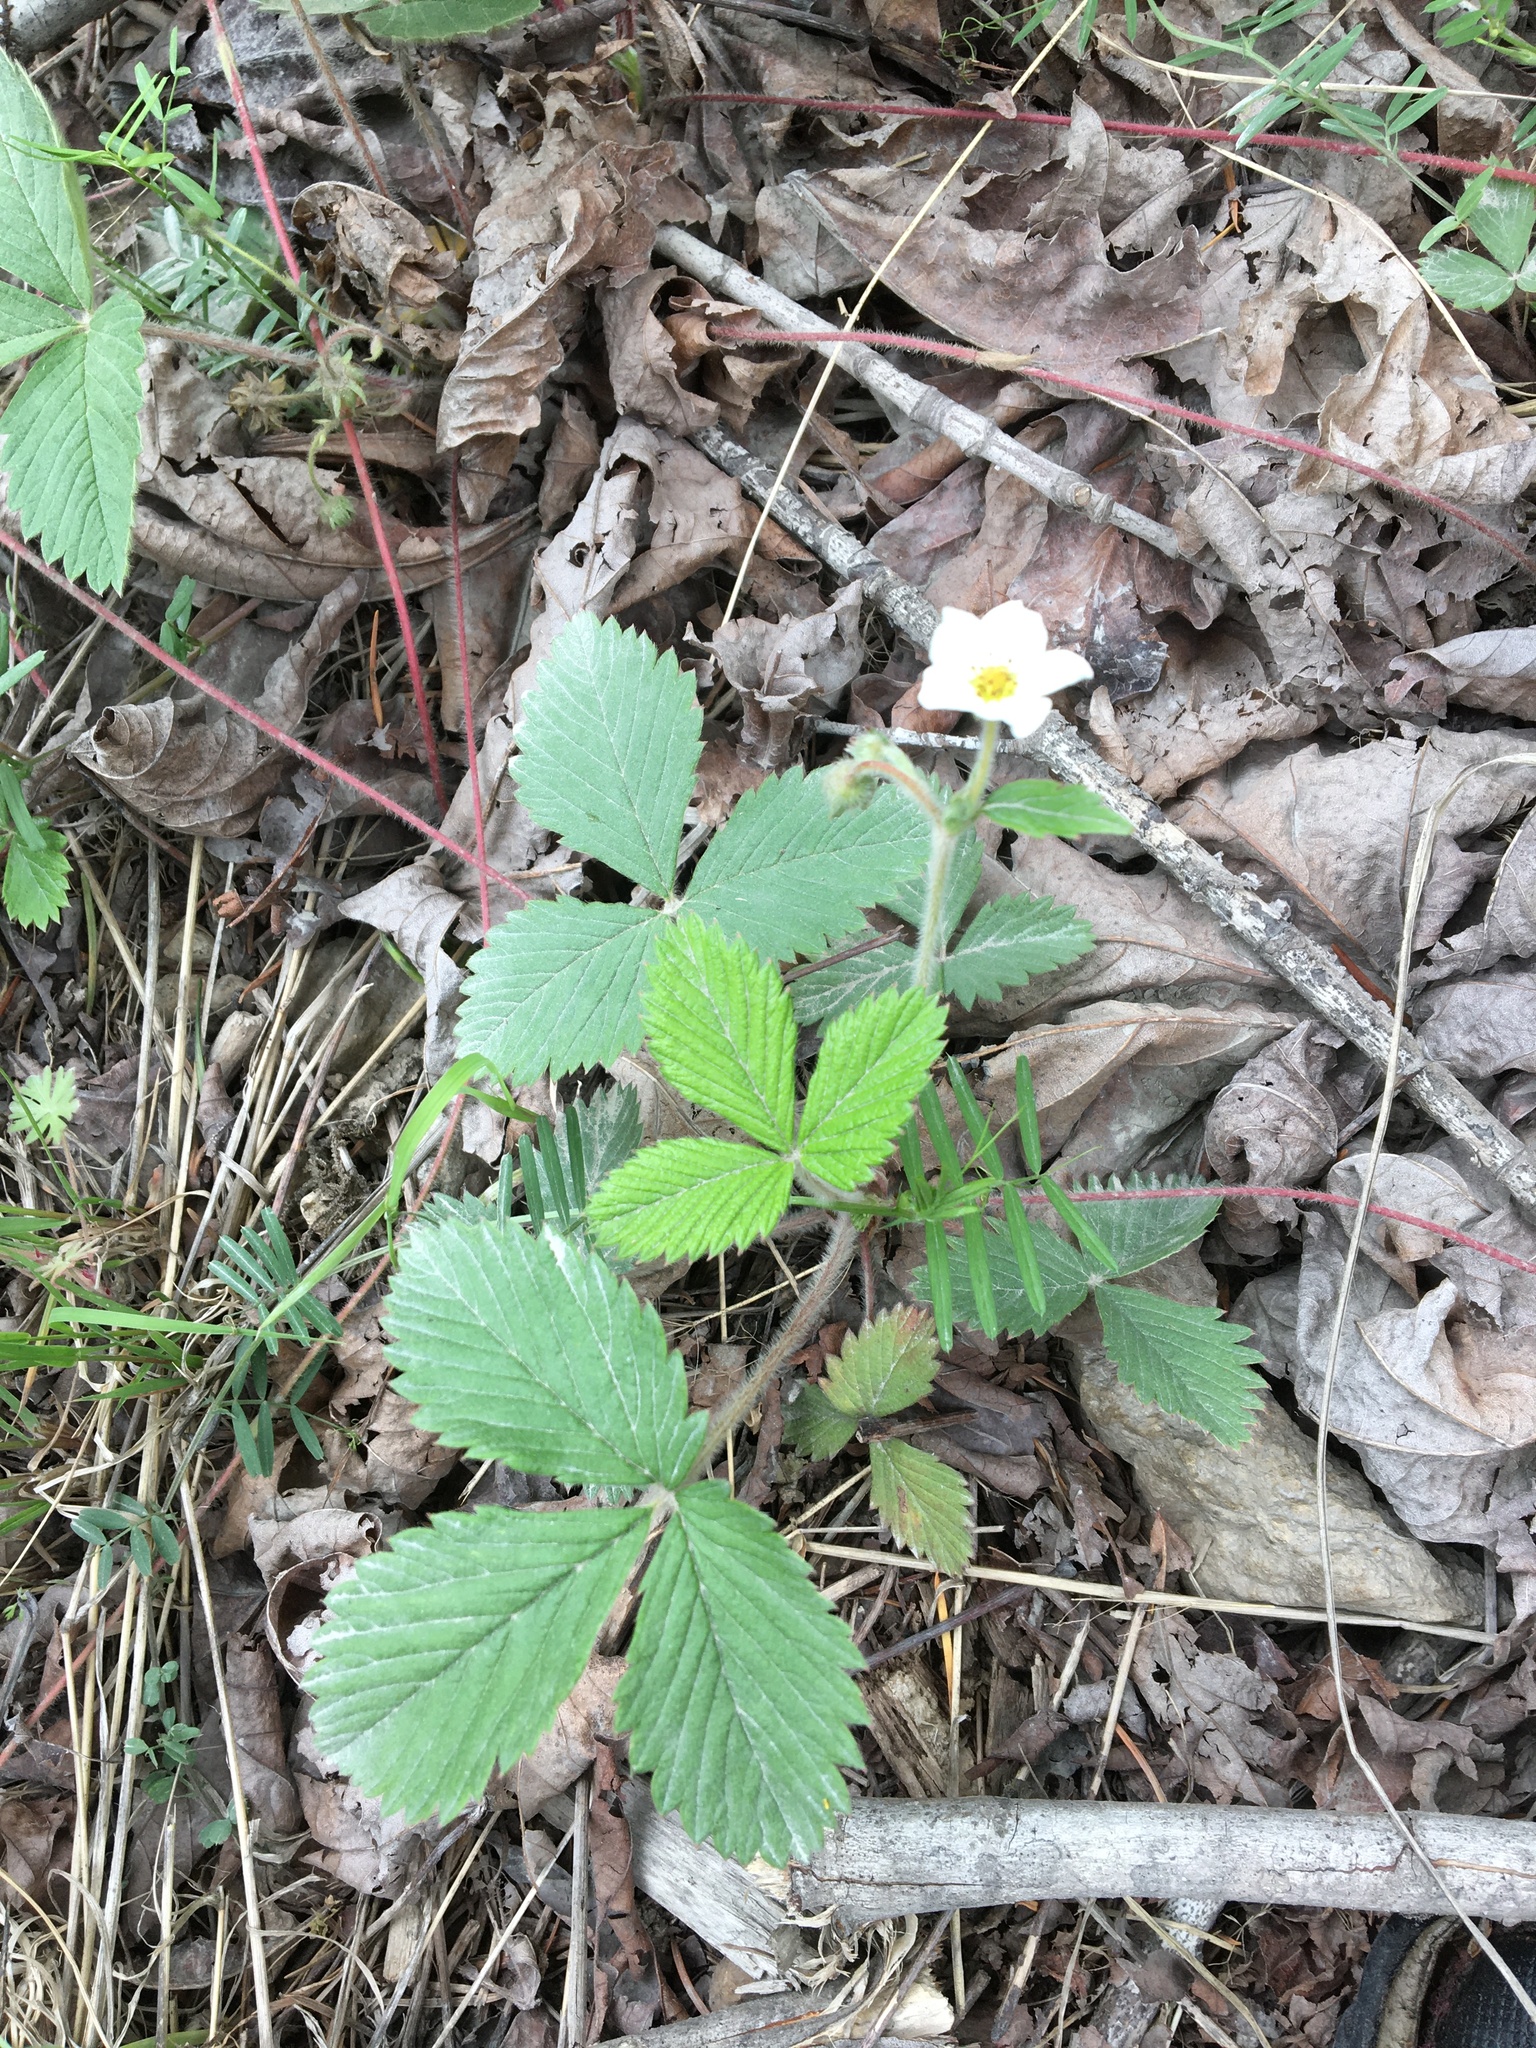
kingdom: Plantae
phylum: Tracheophyta
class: Magnoliopsida
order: Rosales
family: Rosaceae
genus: Fragaria
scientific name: Fragaria vesca
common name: Wild strawberry
